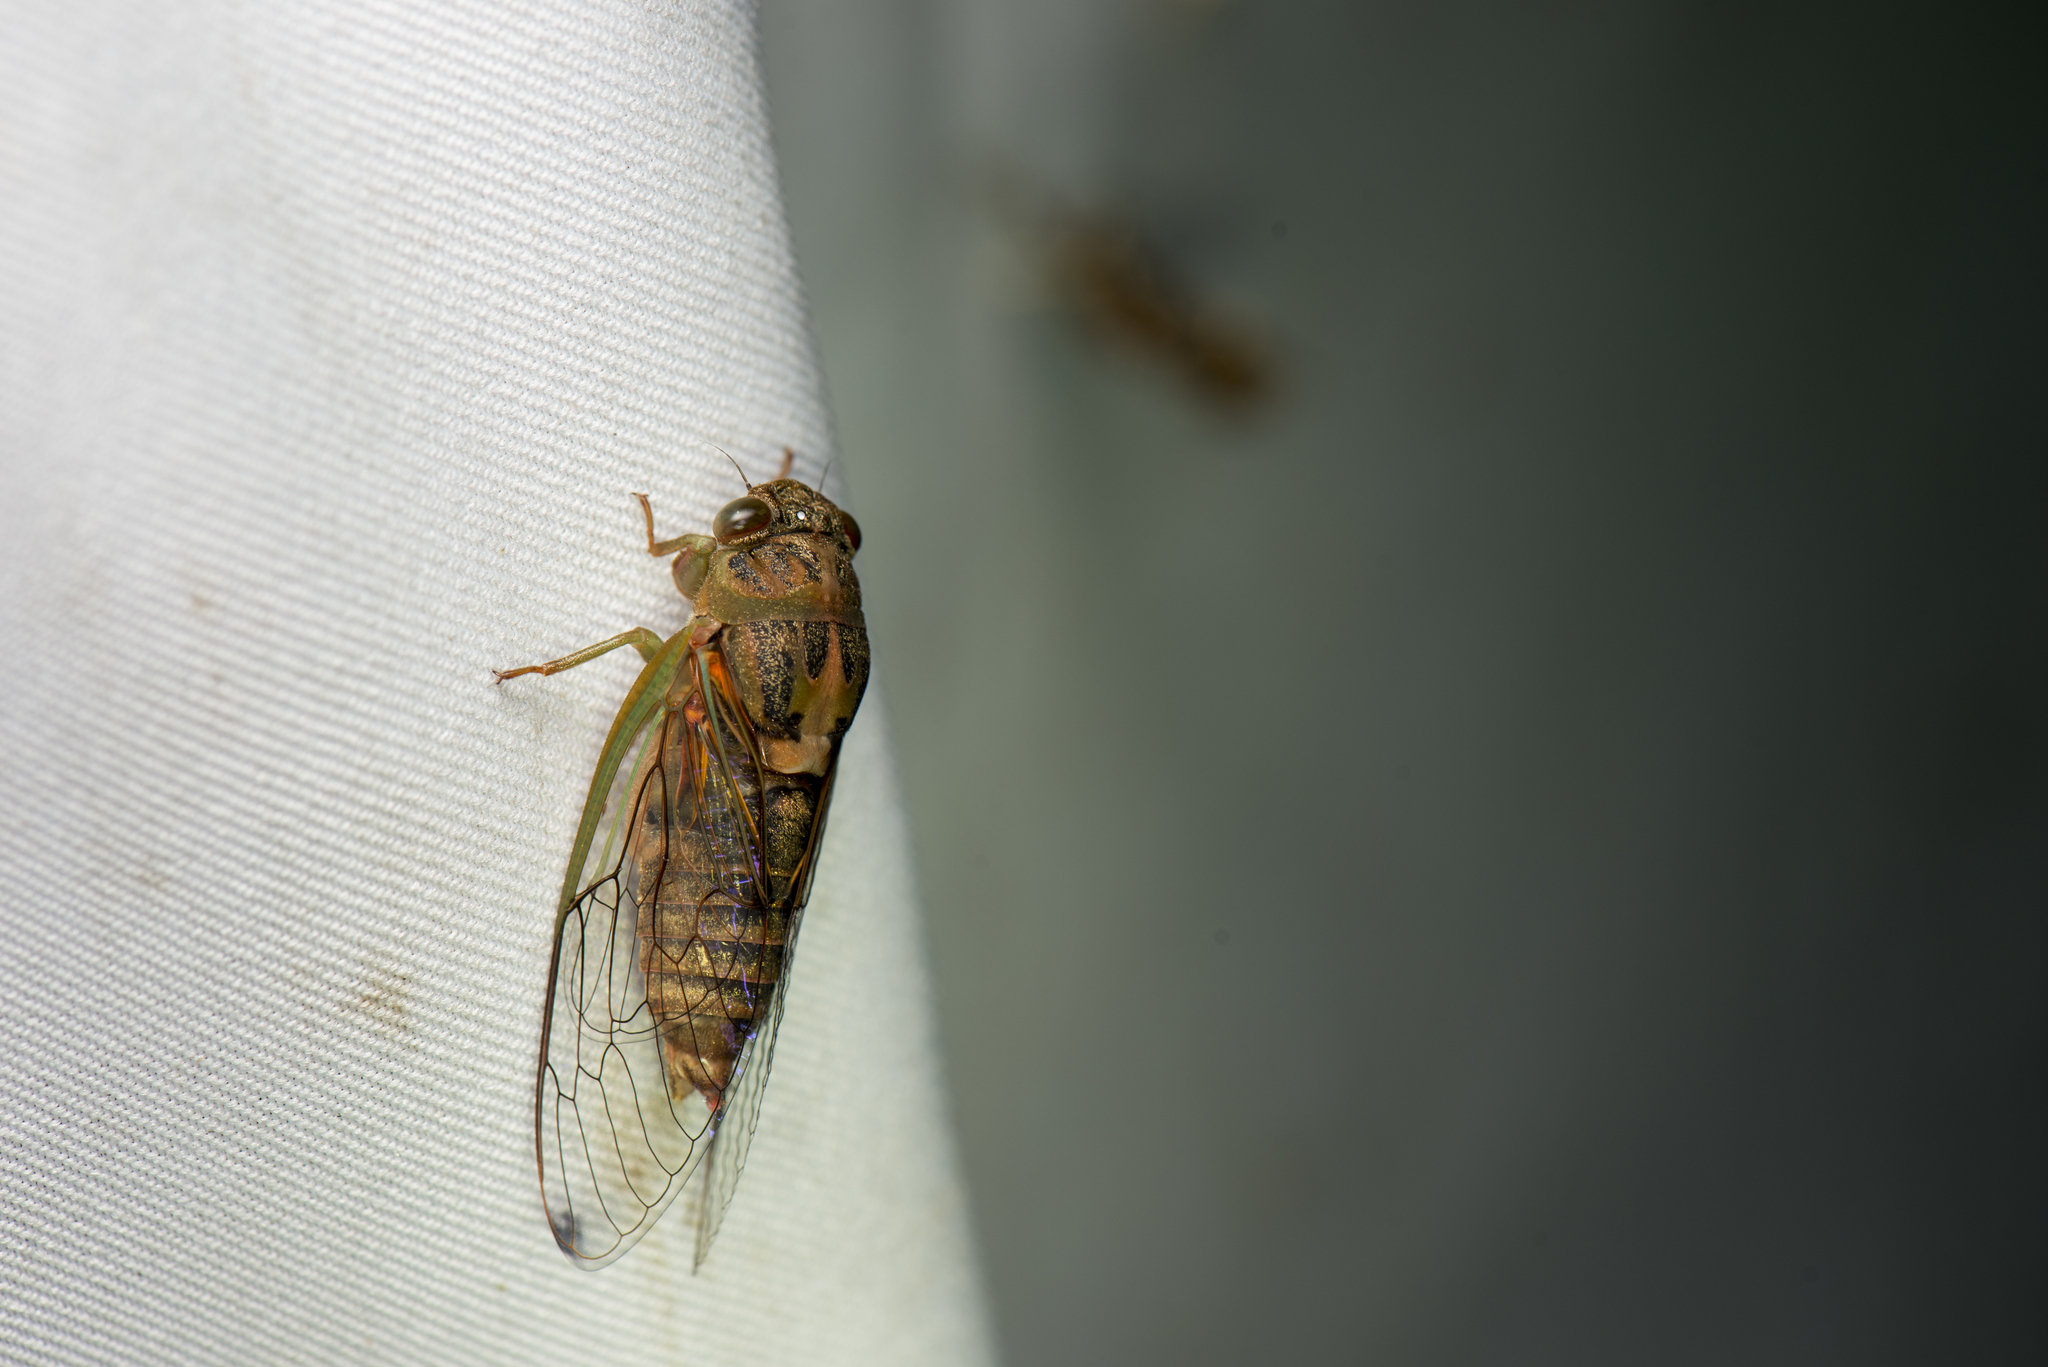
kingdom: Animalia
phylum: Arthropoda
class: Insecta
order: Hemiptera
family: Cicadidae
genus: Vagitanus
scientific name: Vagitanus terminalis
